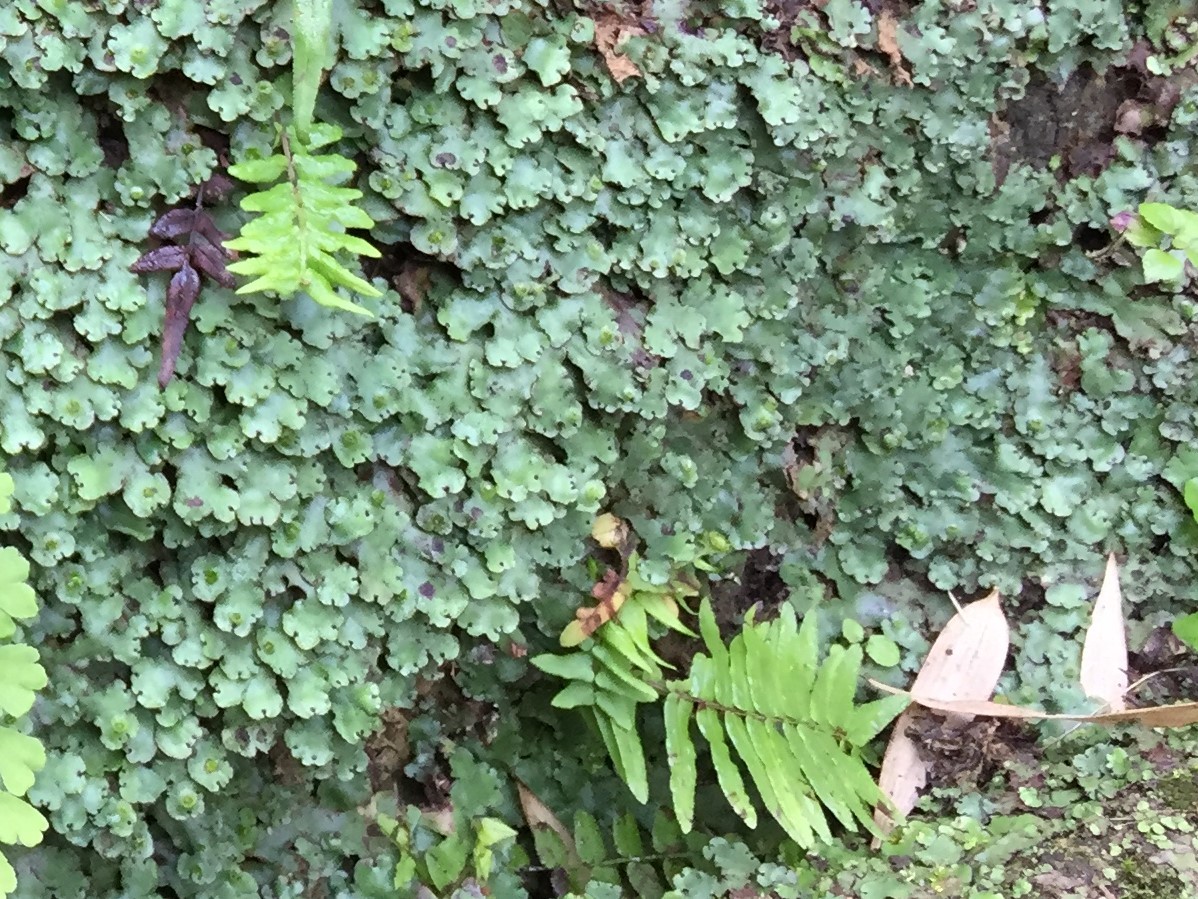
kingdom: Plantae
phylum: Tracheophyta
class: Polypodiopsida
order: Polypodiales
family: Pteridaceae
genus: Pteris
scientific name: Pteris vittata
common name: Ladder brake
